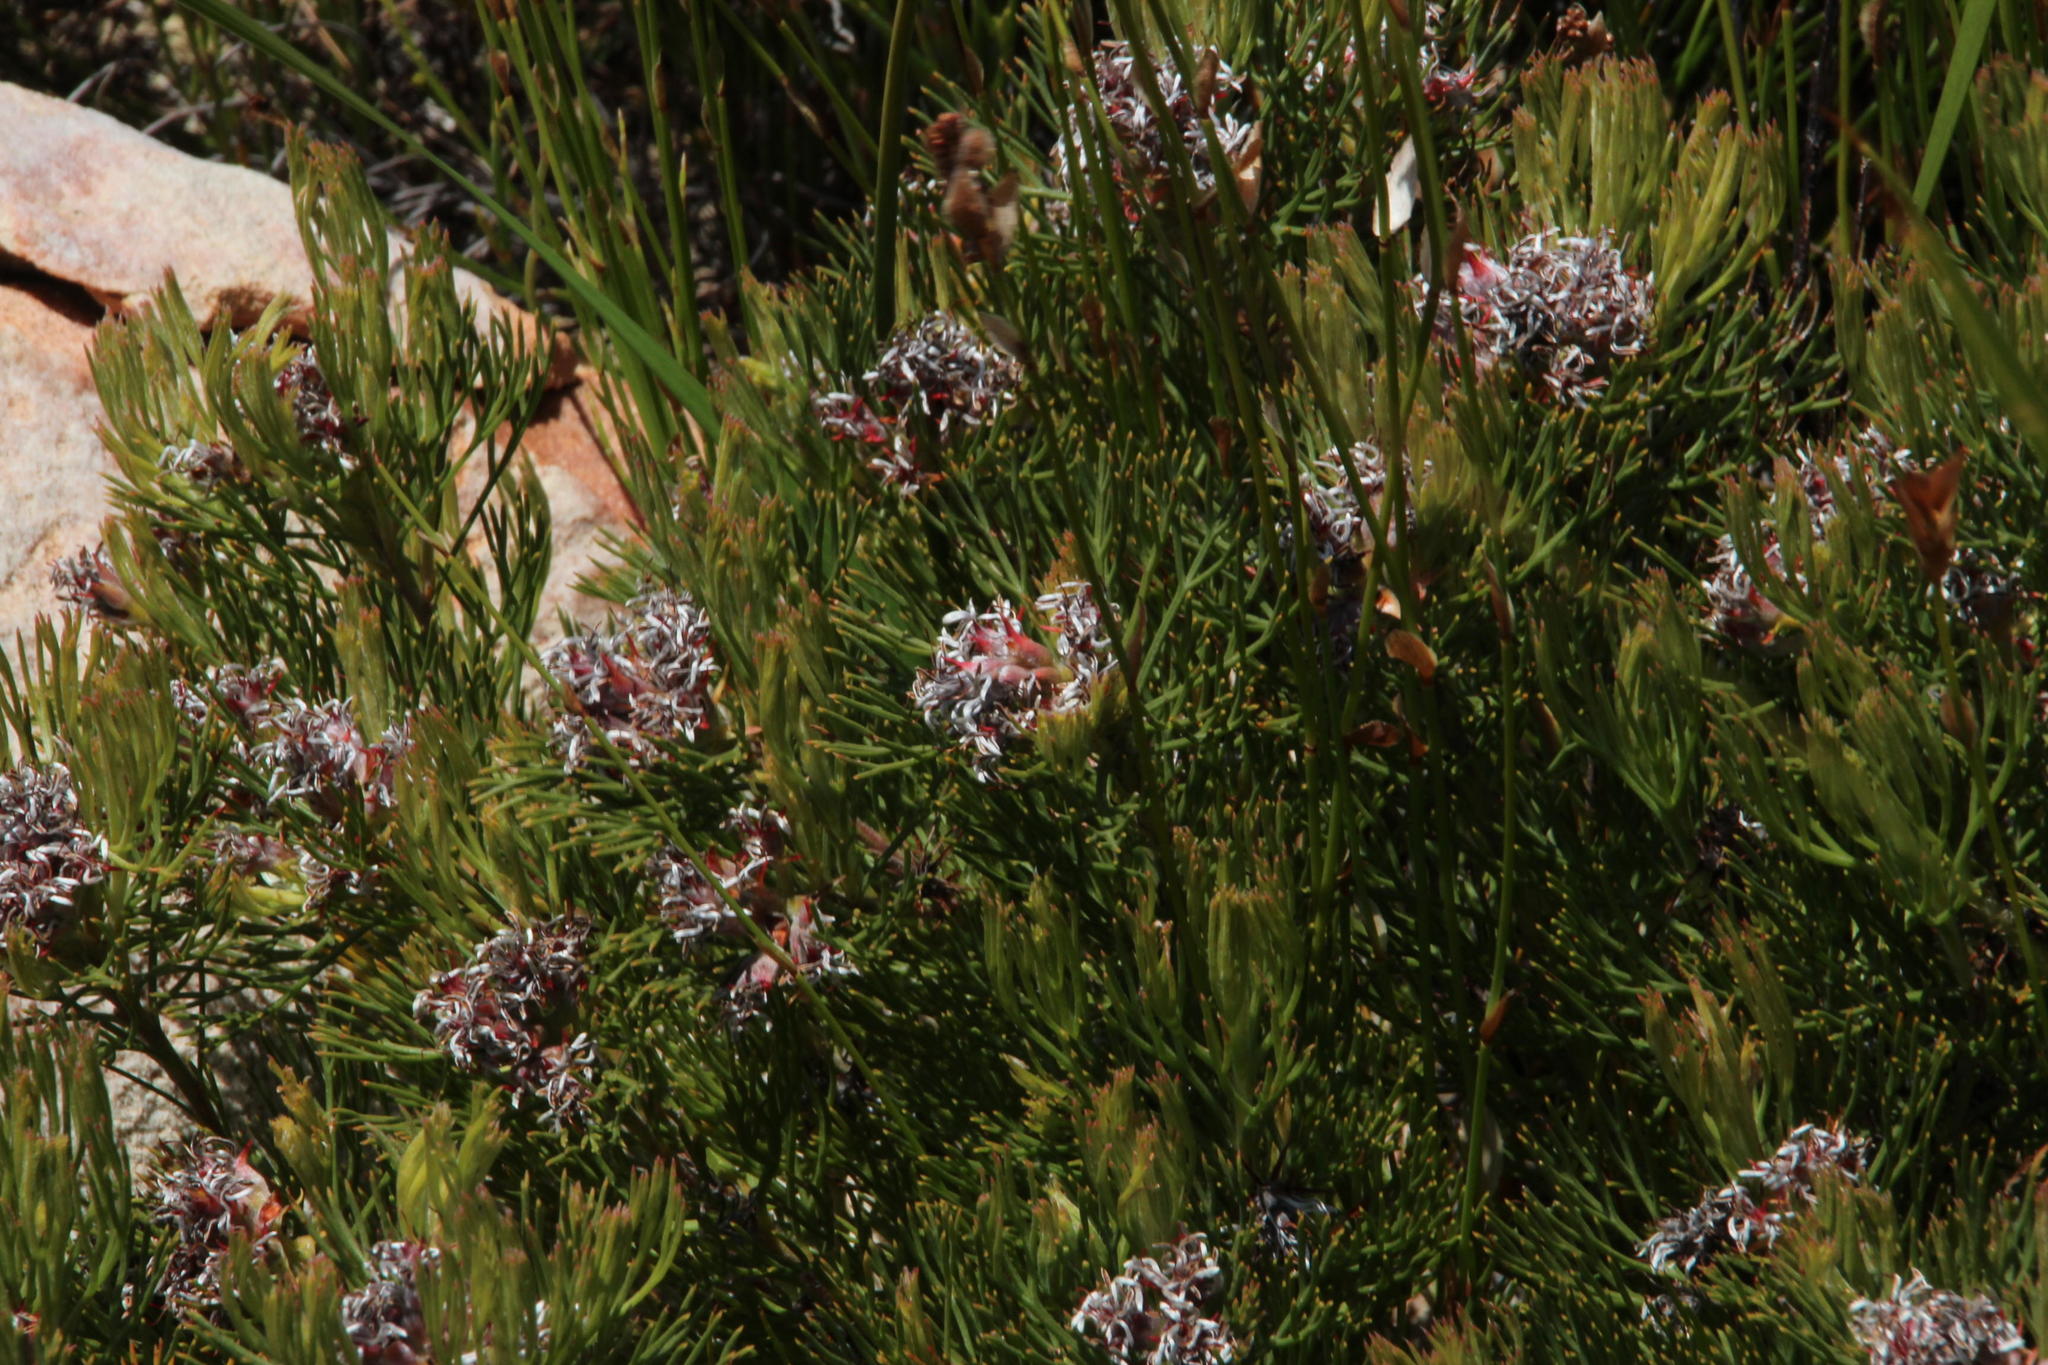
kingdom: Plantae
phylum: Tracheophyta
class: Magnoliopsida
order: Proteales
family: Proteaceae
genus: Serruria
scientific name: Serruria ascendens
